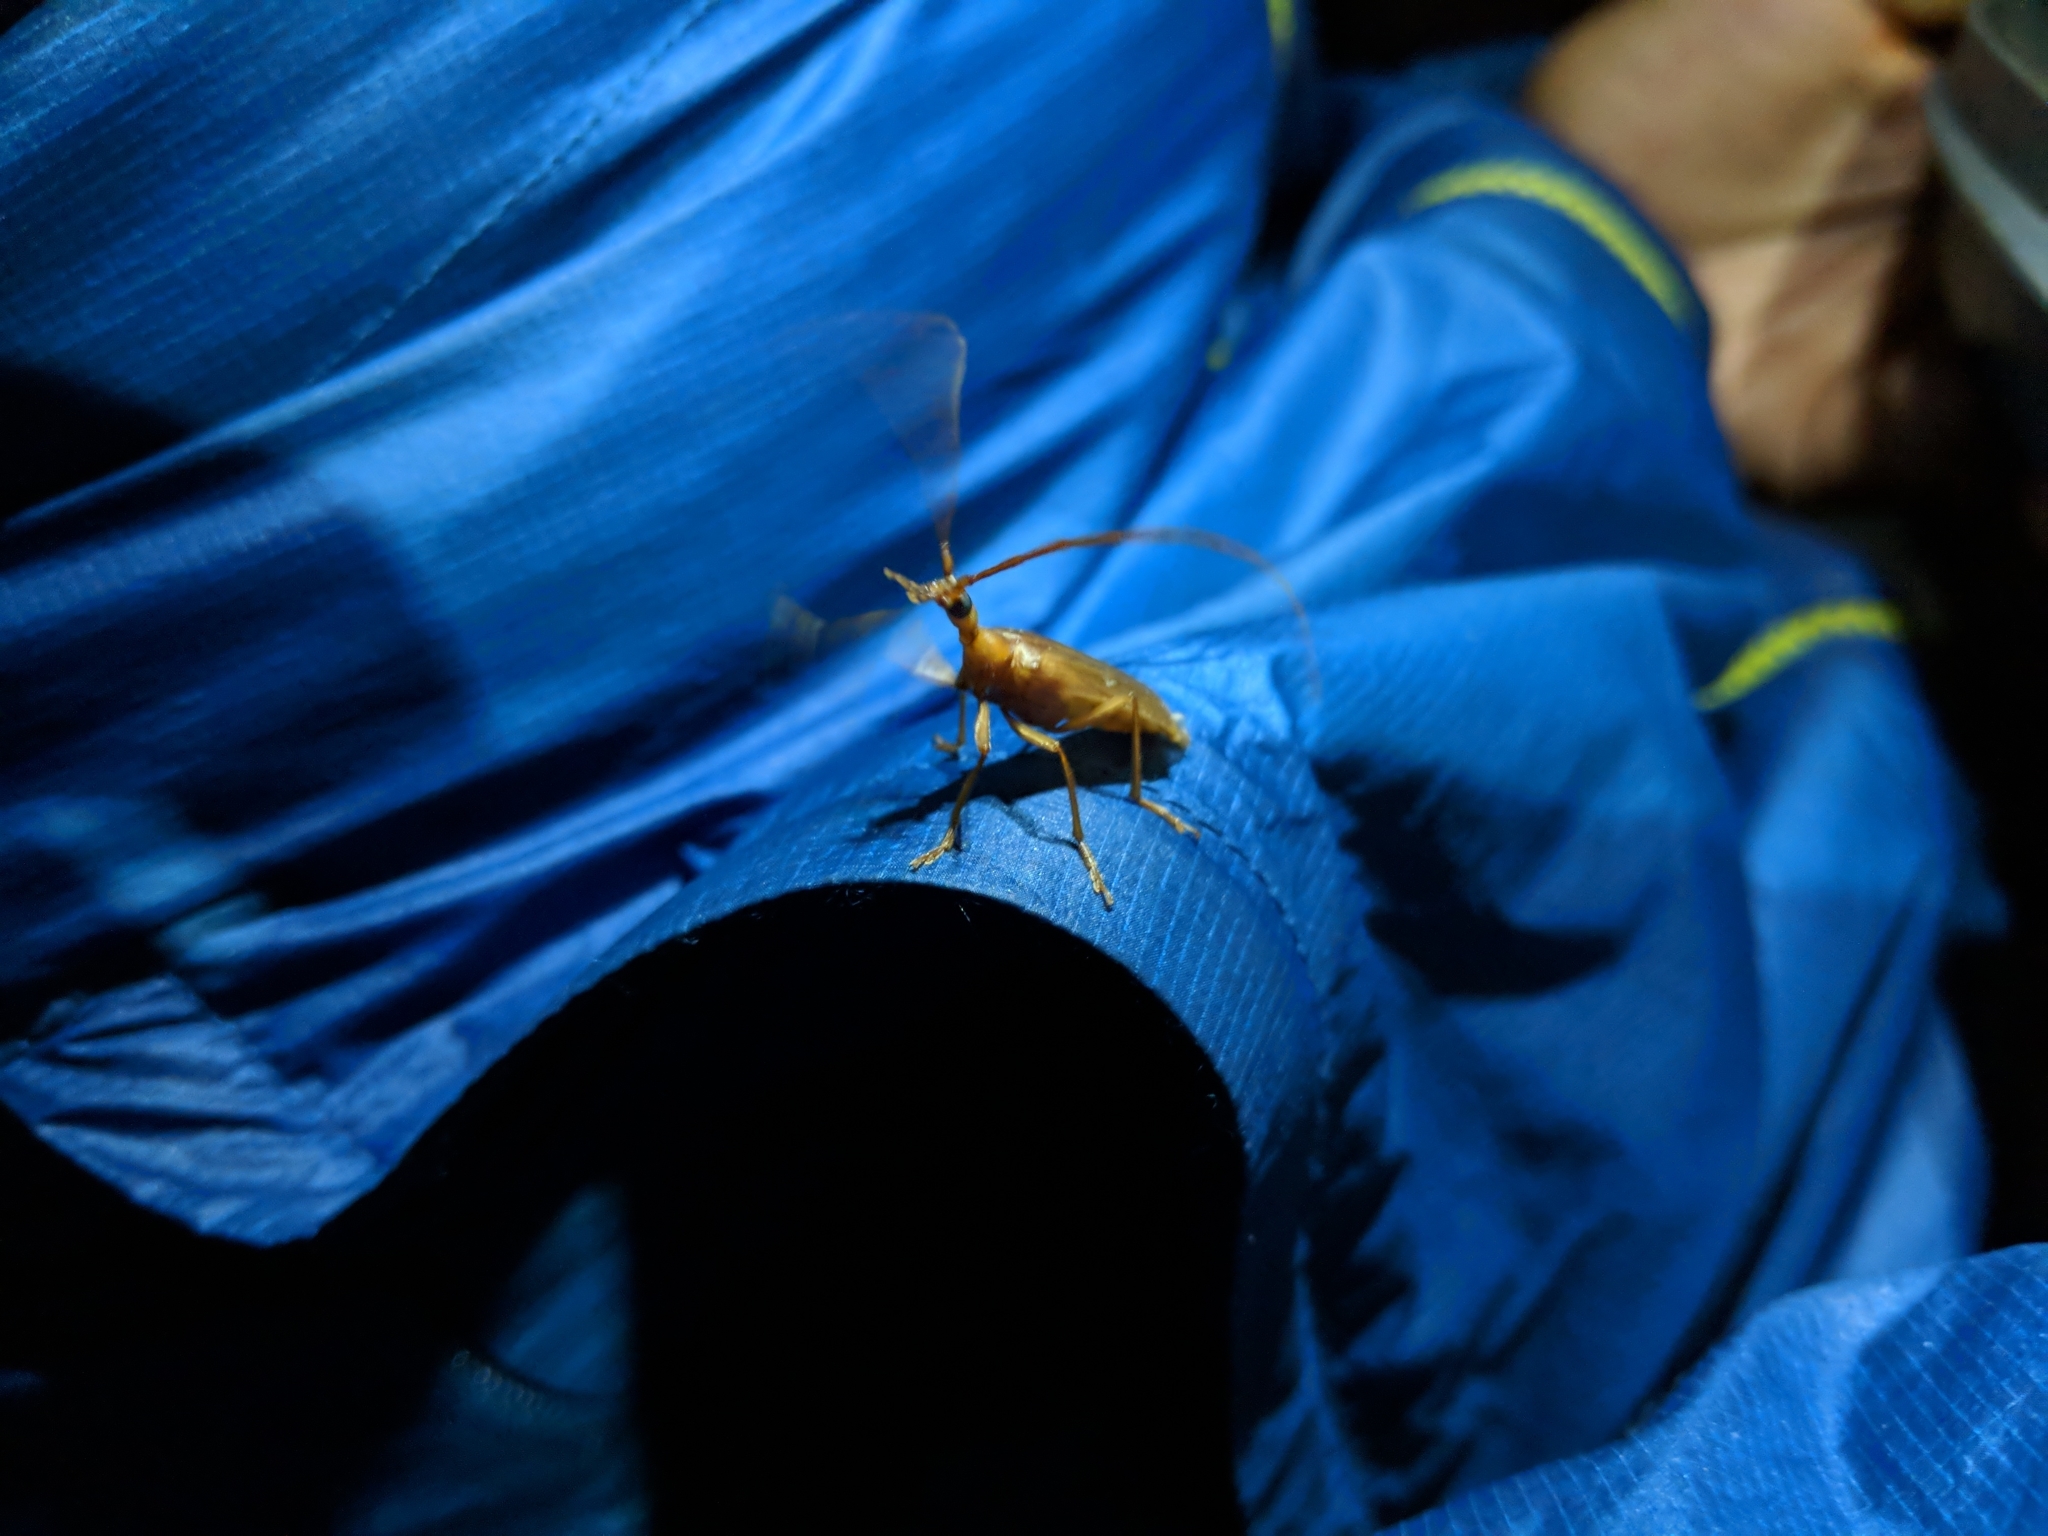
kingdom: Animalia
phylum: Arthropoda
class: Insecta
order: Coleoptera
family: Cerambycidae
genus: Vesperus
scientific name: Vesperus creticus
